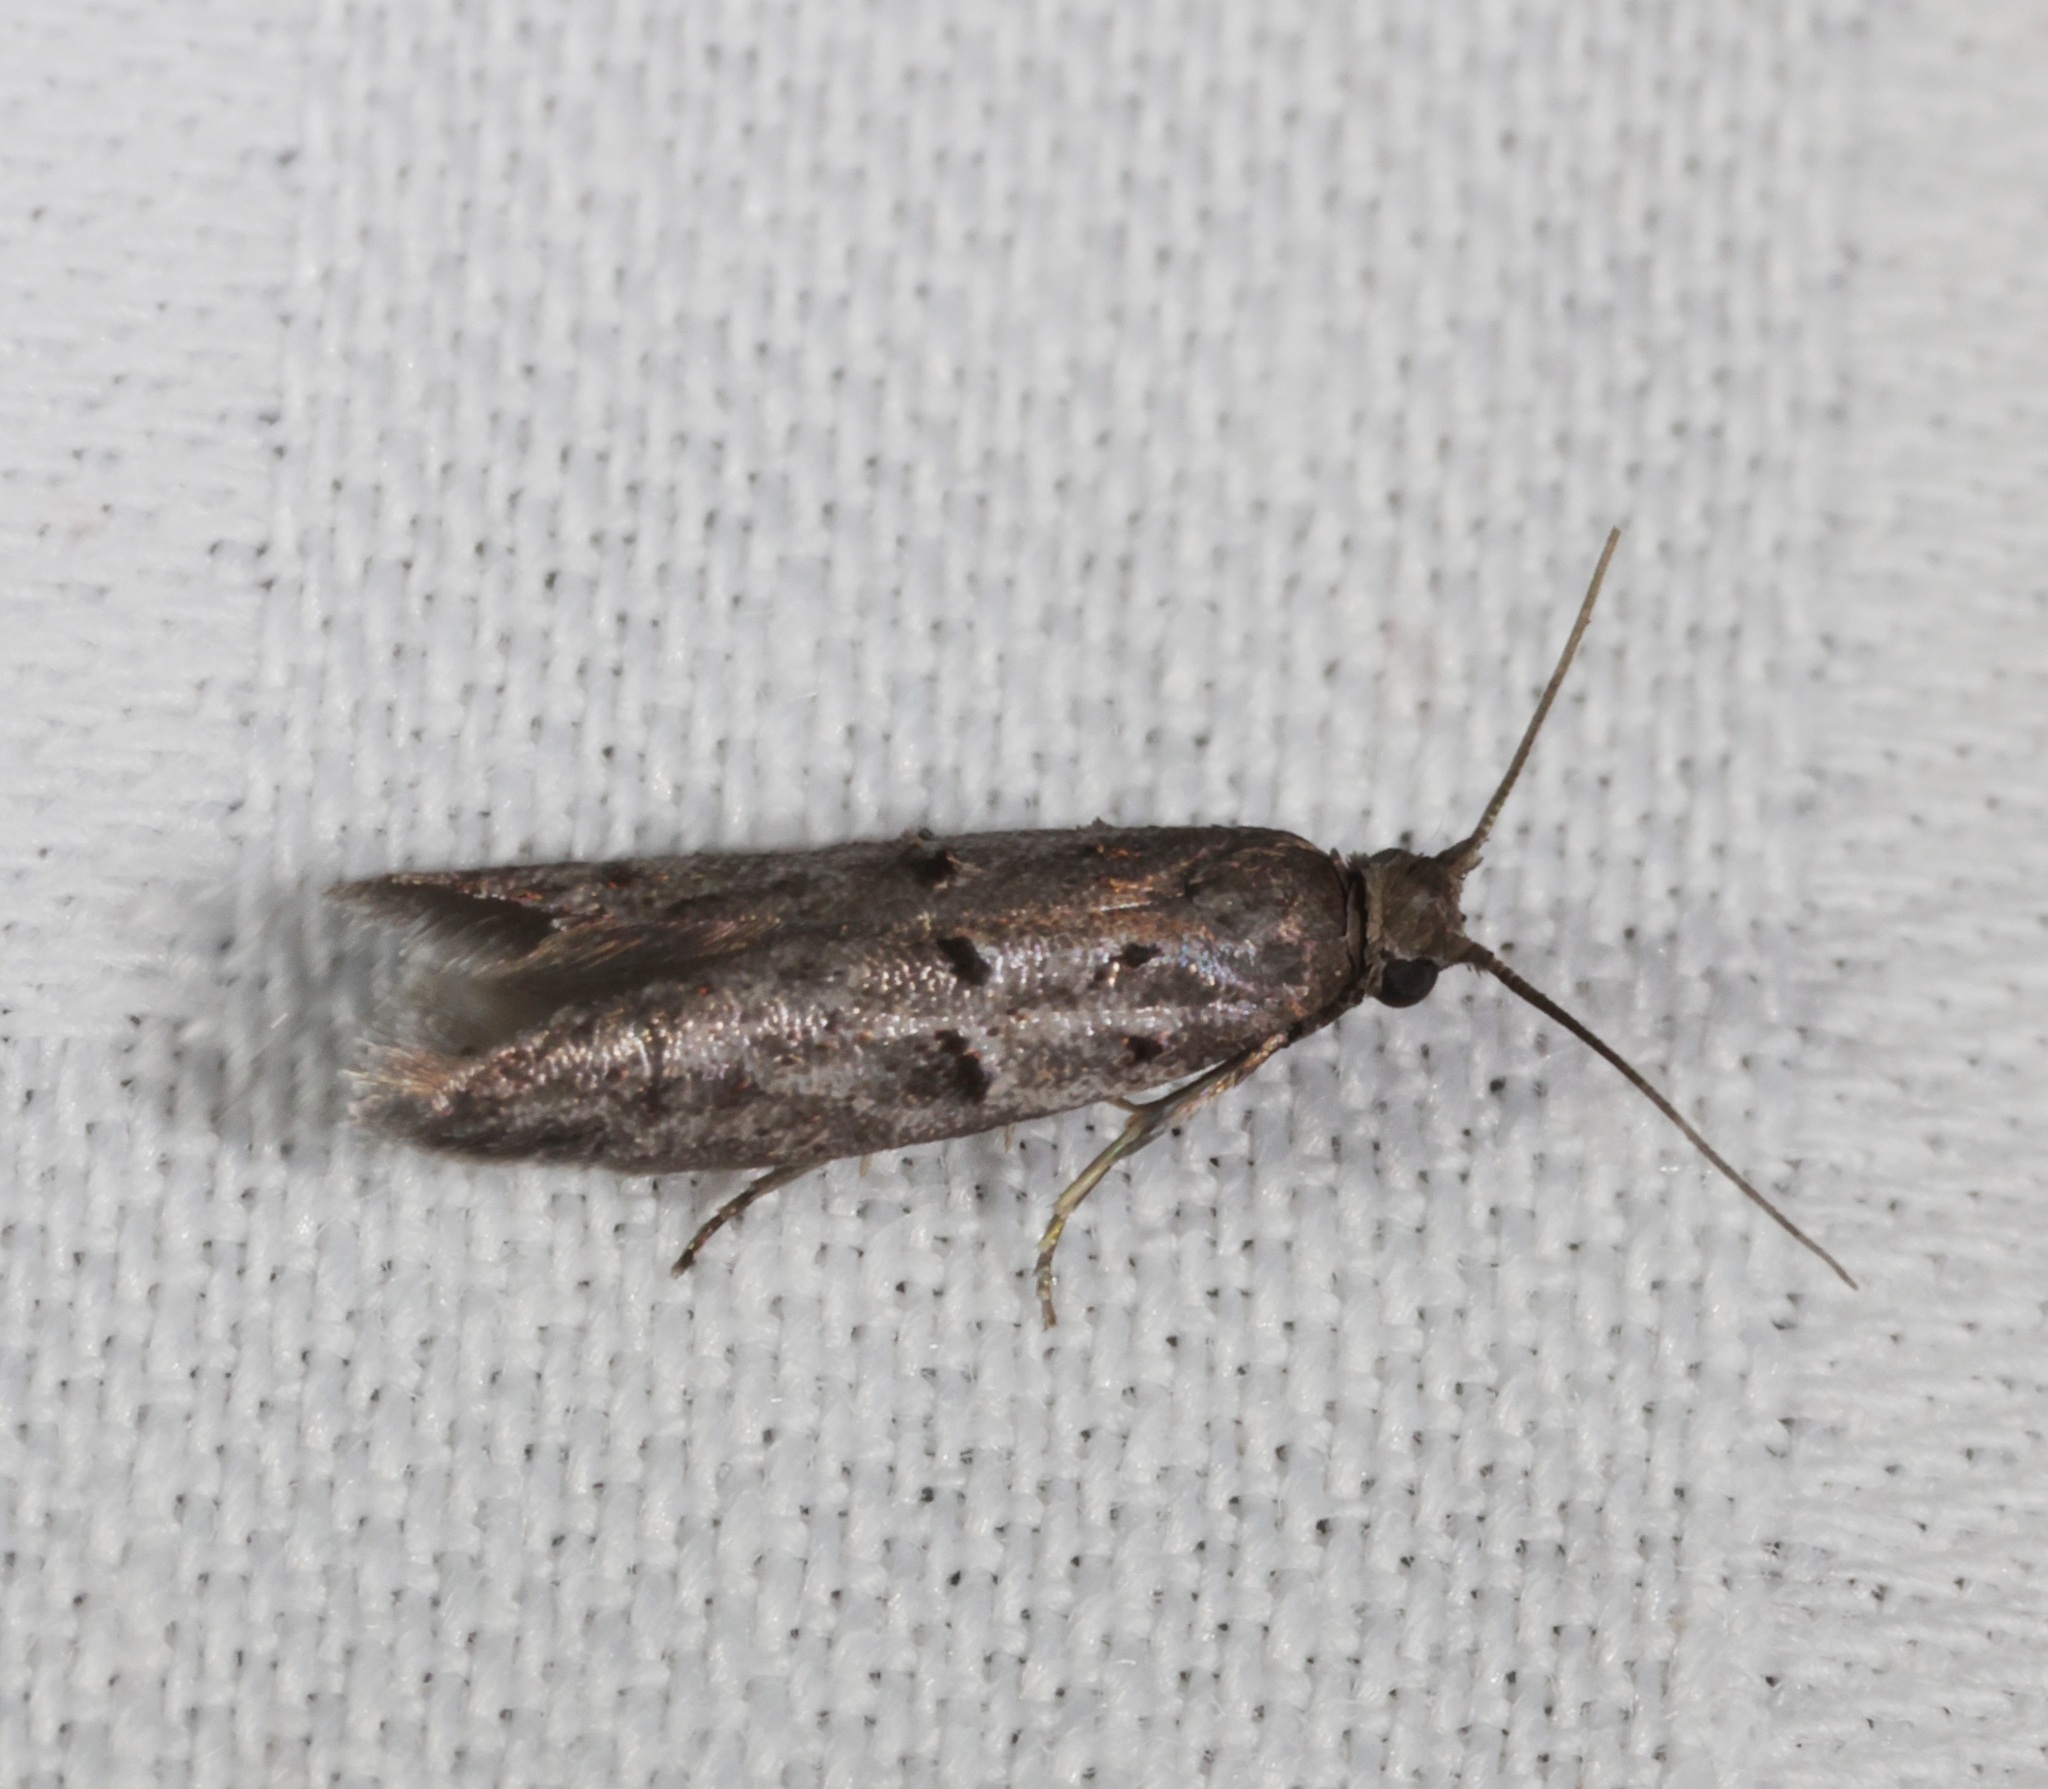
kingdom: Animalia
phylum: Arthropoda
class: Insecta
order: Lepidoptera
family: Pyralidae
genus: Copamyntis
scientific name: Copamyntis leptocosma
